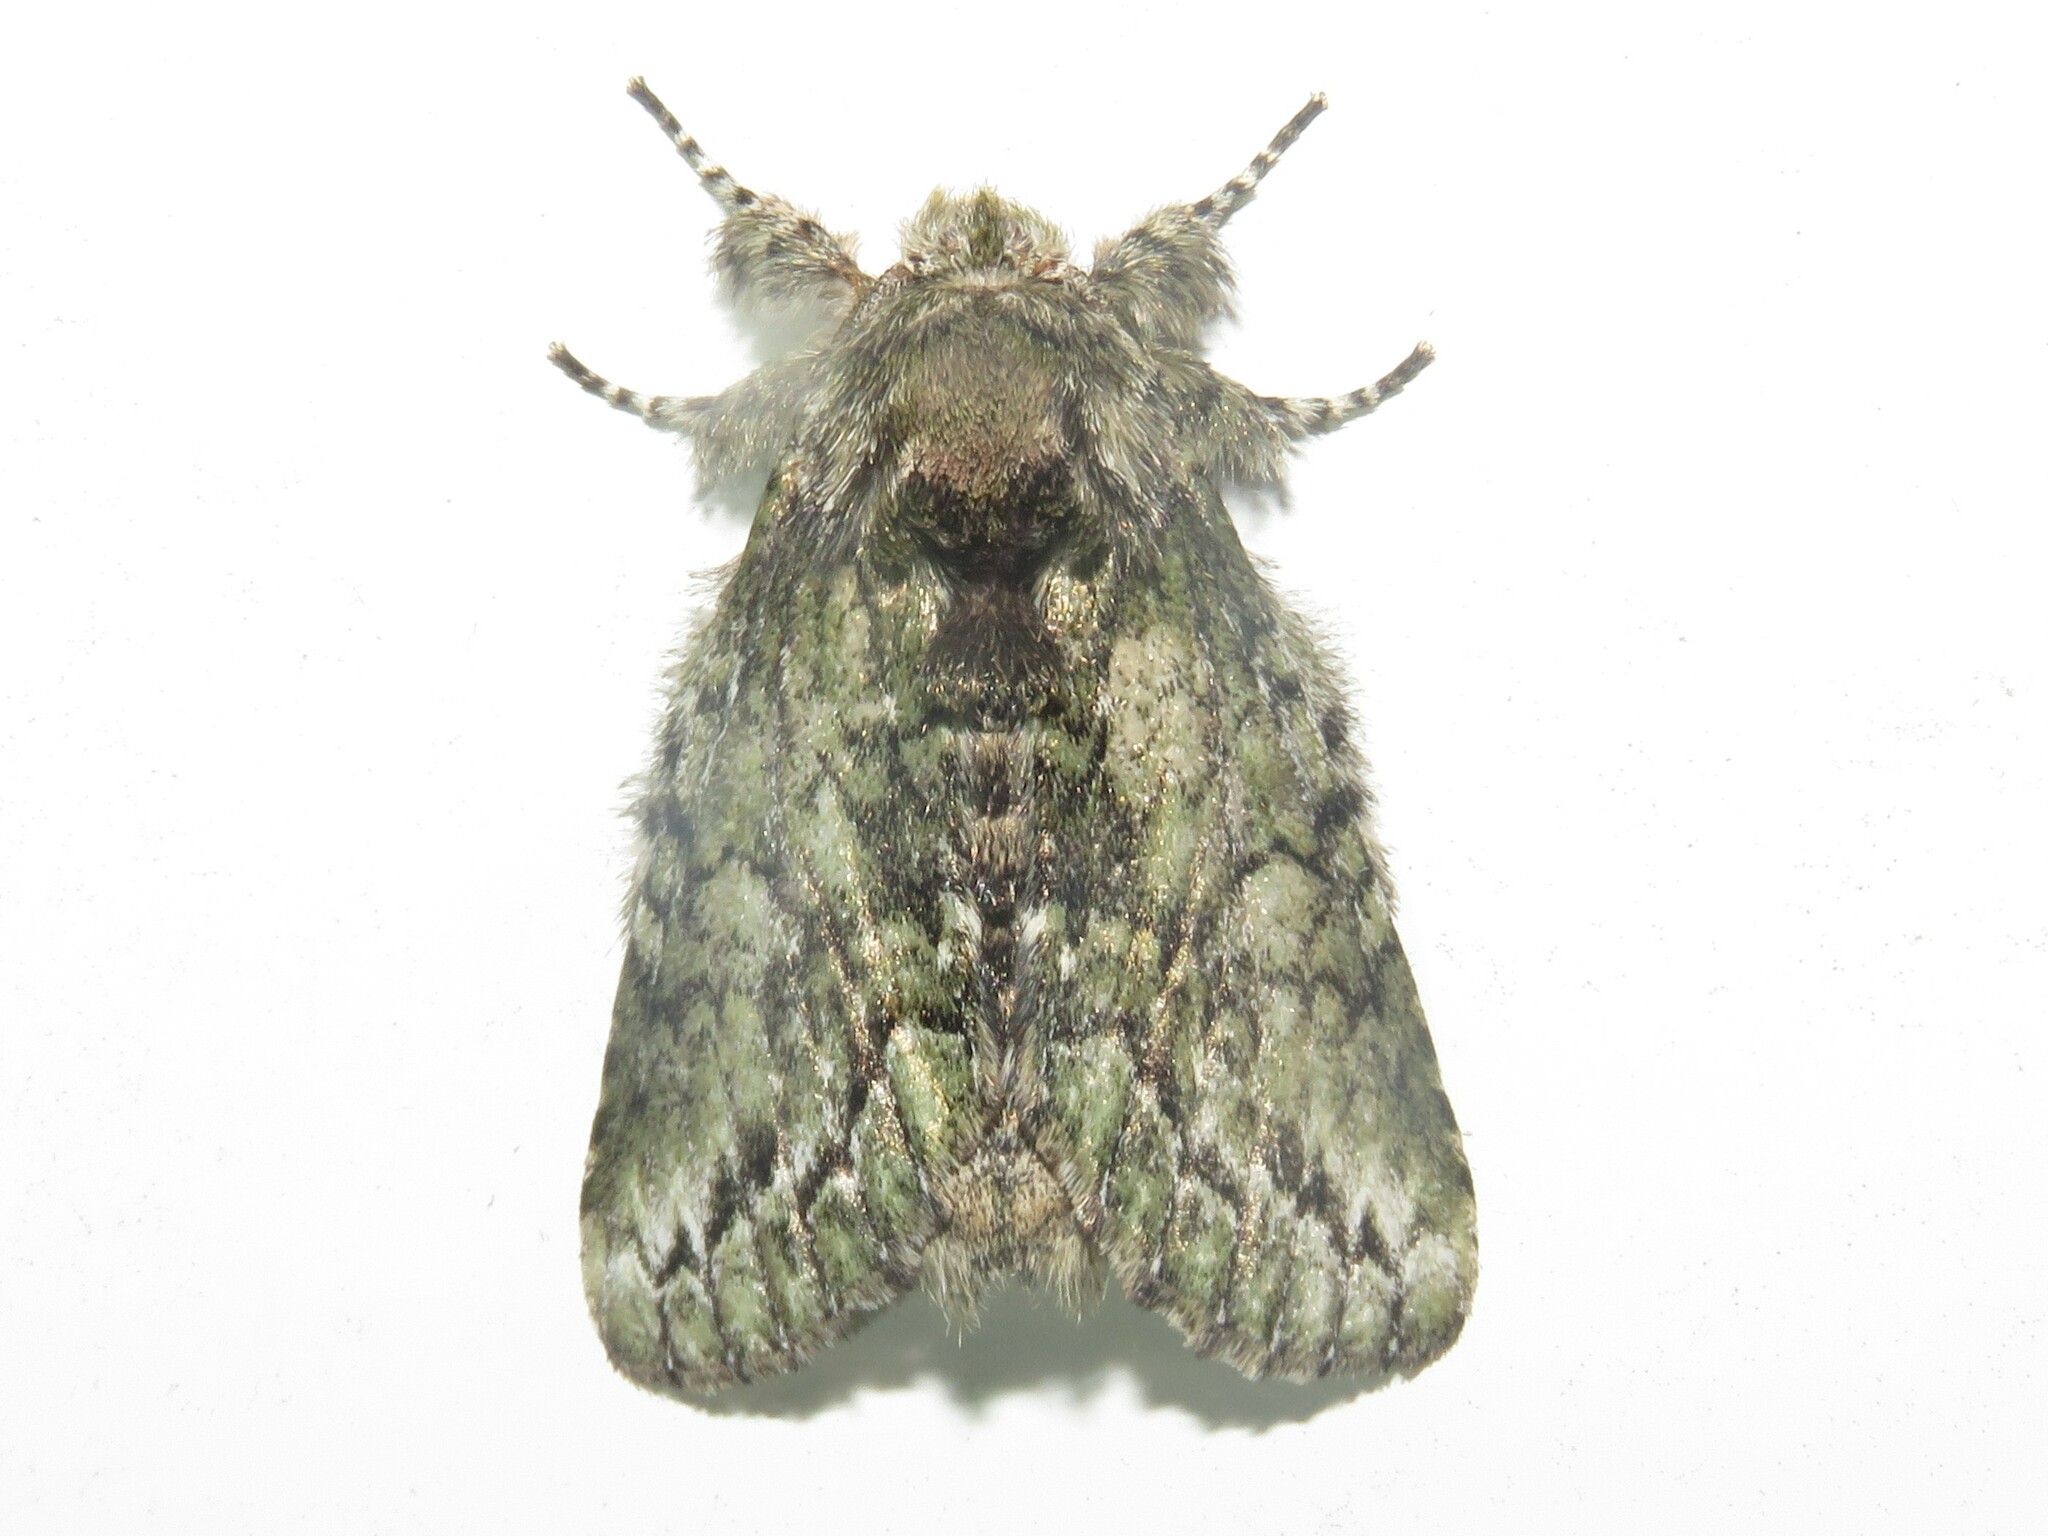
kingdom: Animalia
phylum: Arthropoda
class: Insecta
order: Lepidoptera
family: Notodontidae
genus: Heterocampa
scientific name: Heterocampa
